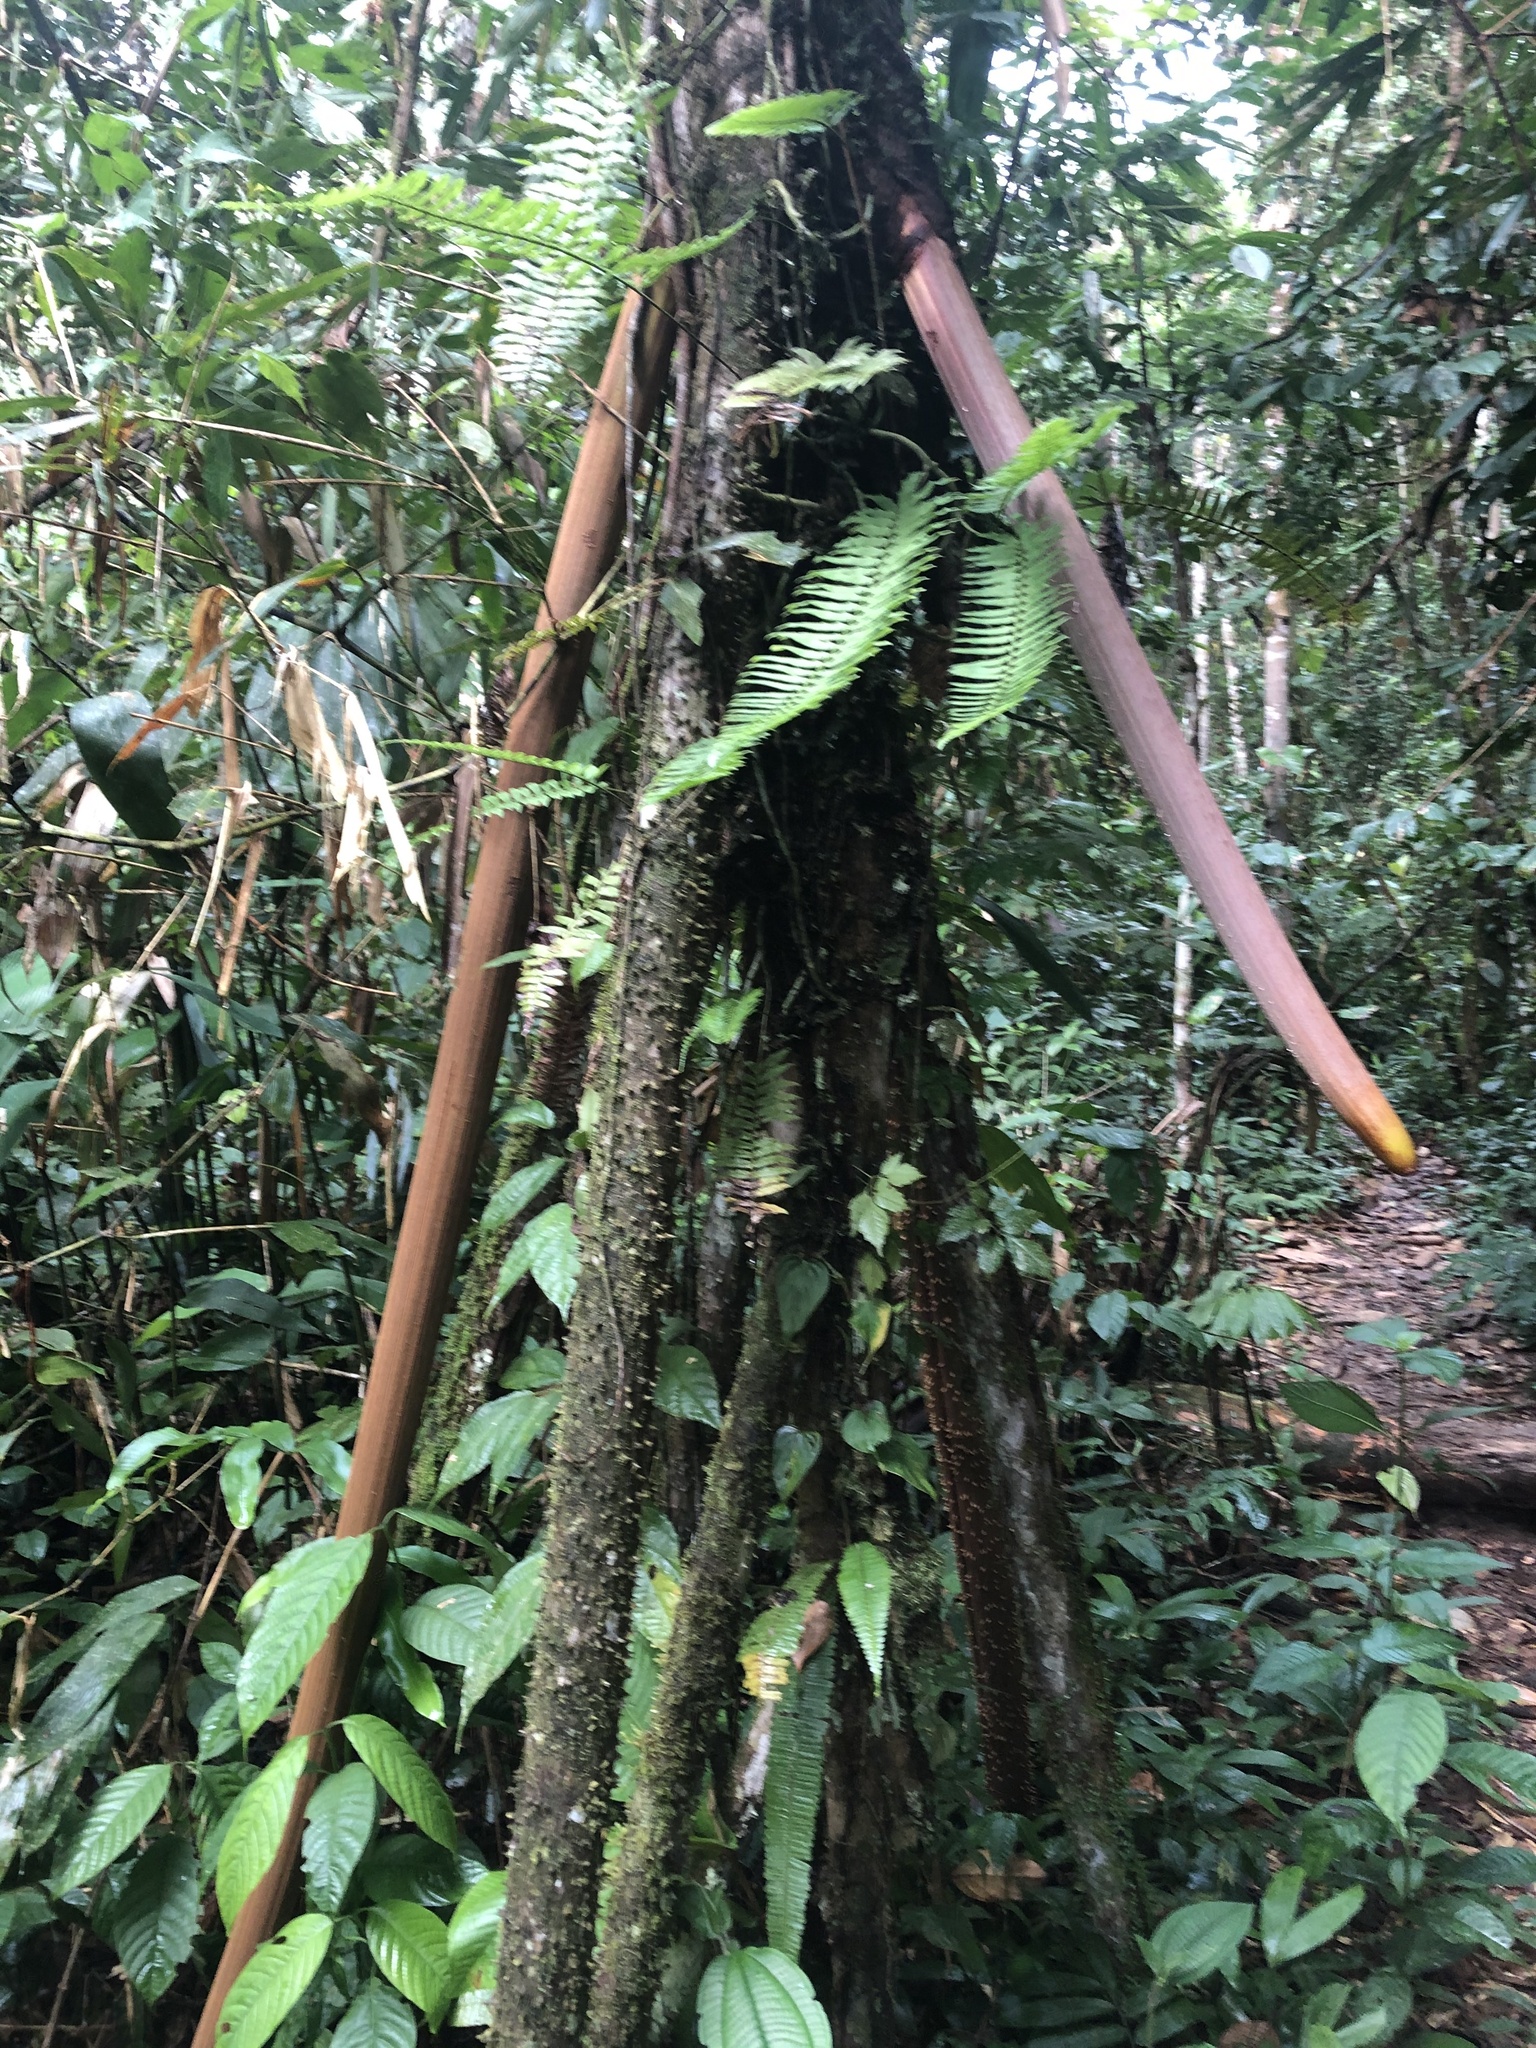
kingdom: Plantae
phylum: Tracheophyta
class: Liliopsida
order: Arecales
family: Arecaceae
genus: Socratea
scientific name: Socratea exorrhiza
